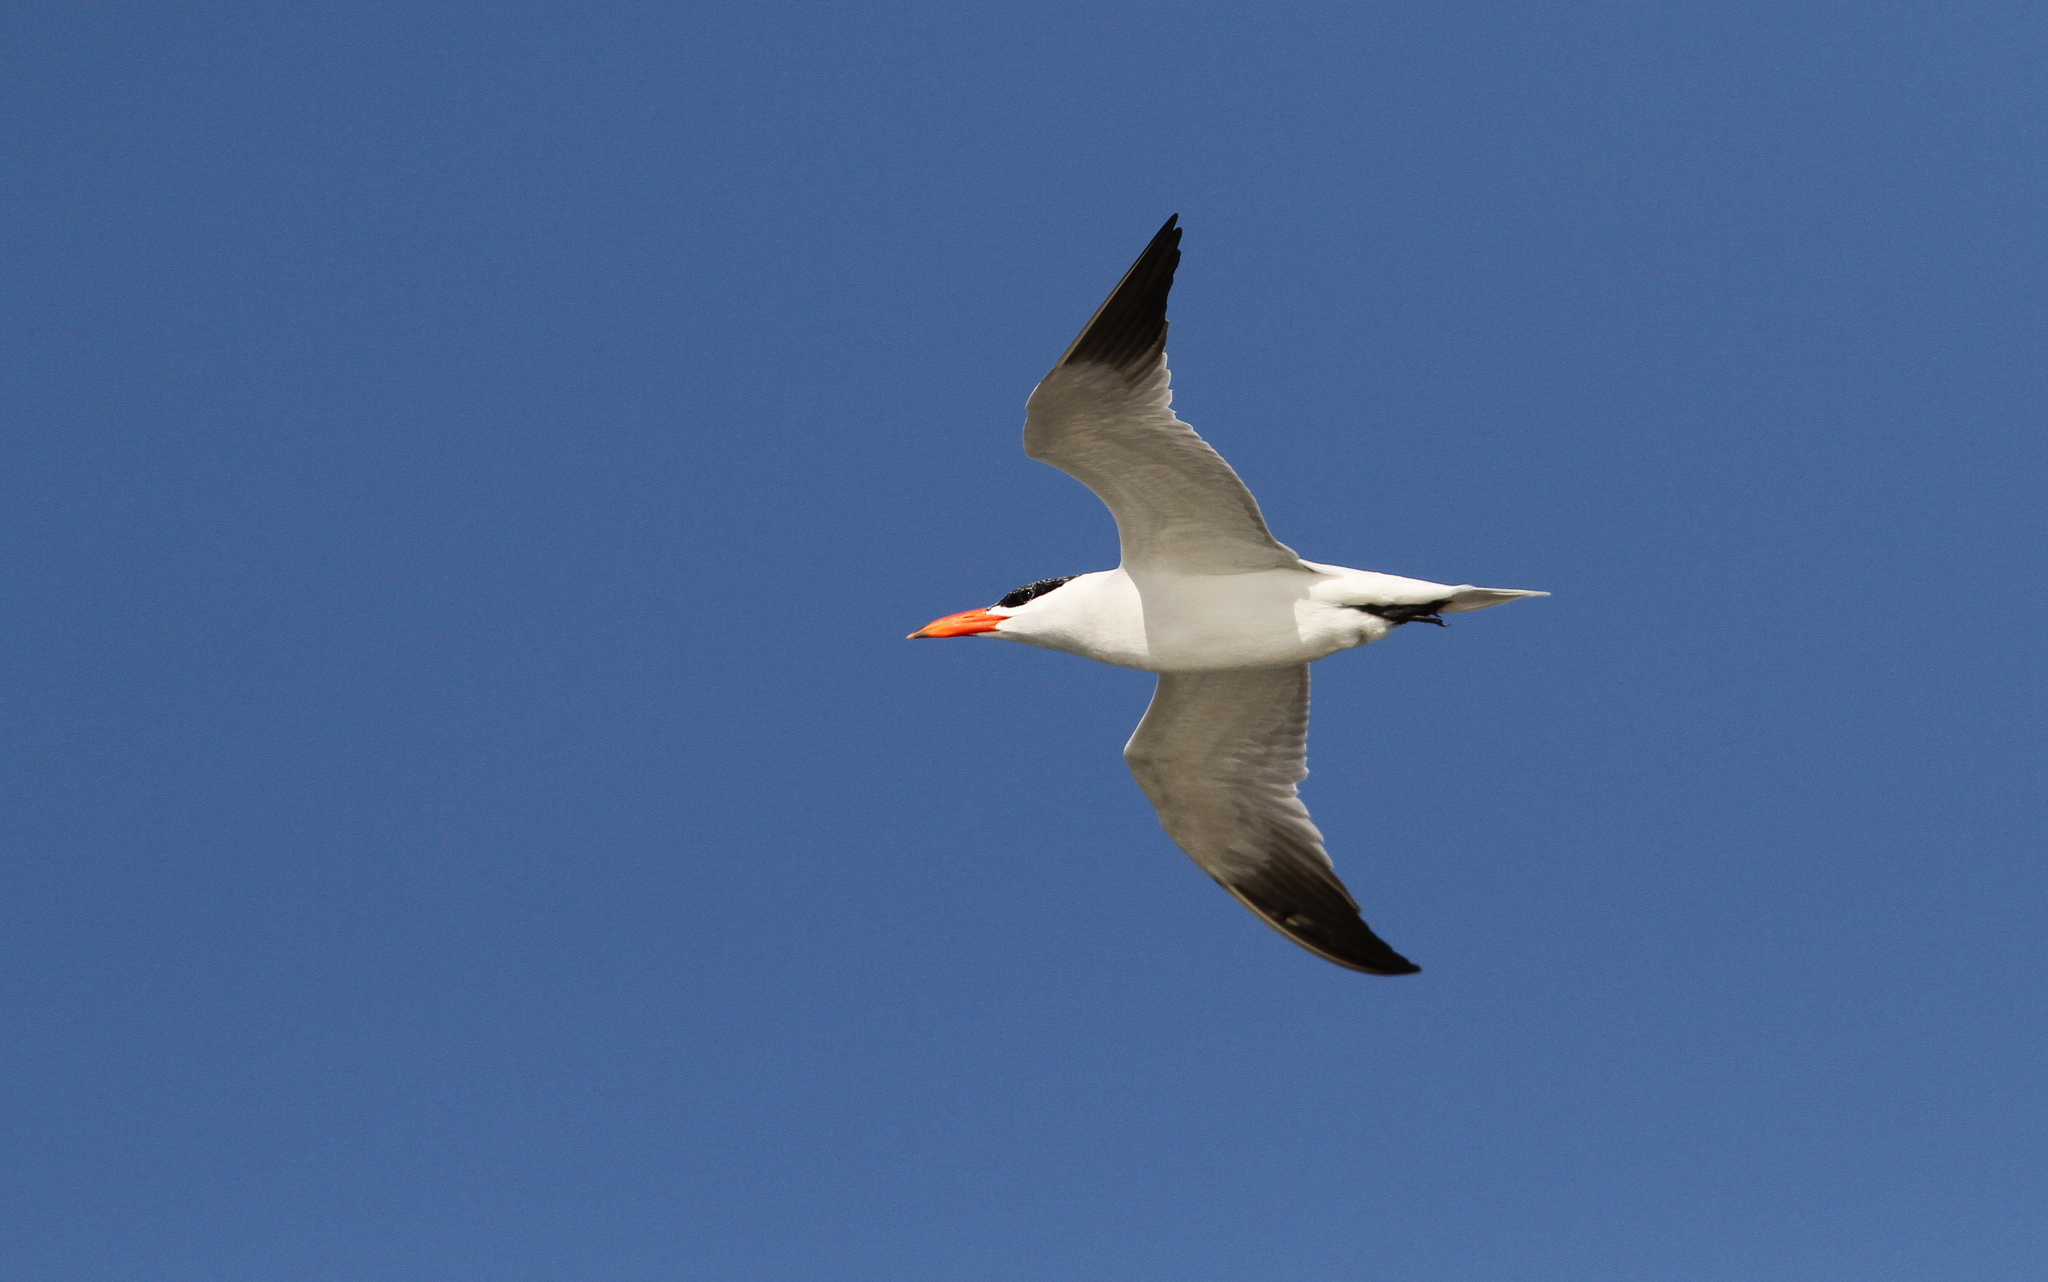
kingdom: Animalia
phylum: Chordata
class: Aves
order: Charadriiformes
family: Laridae
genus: Hydroprogne
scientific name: Hydroprogne caspia
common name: Caspian tern
